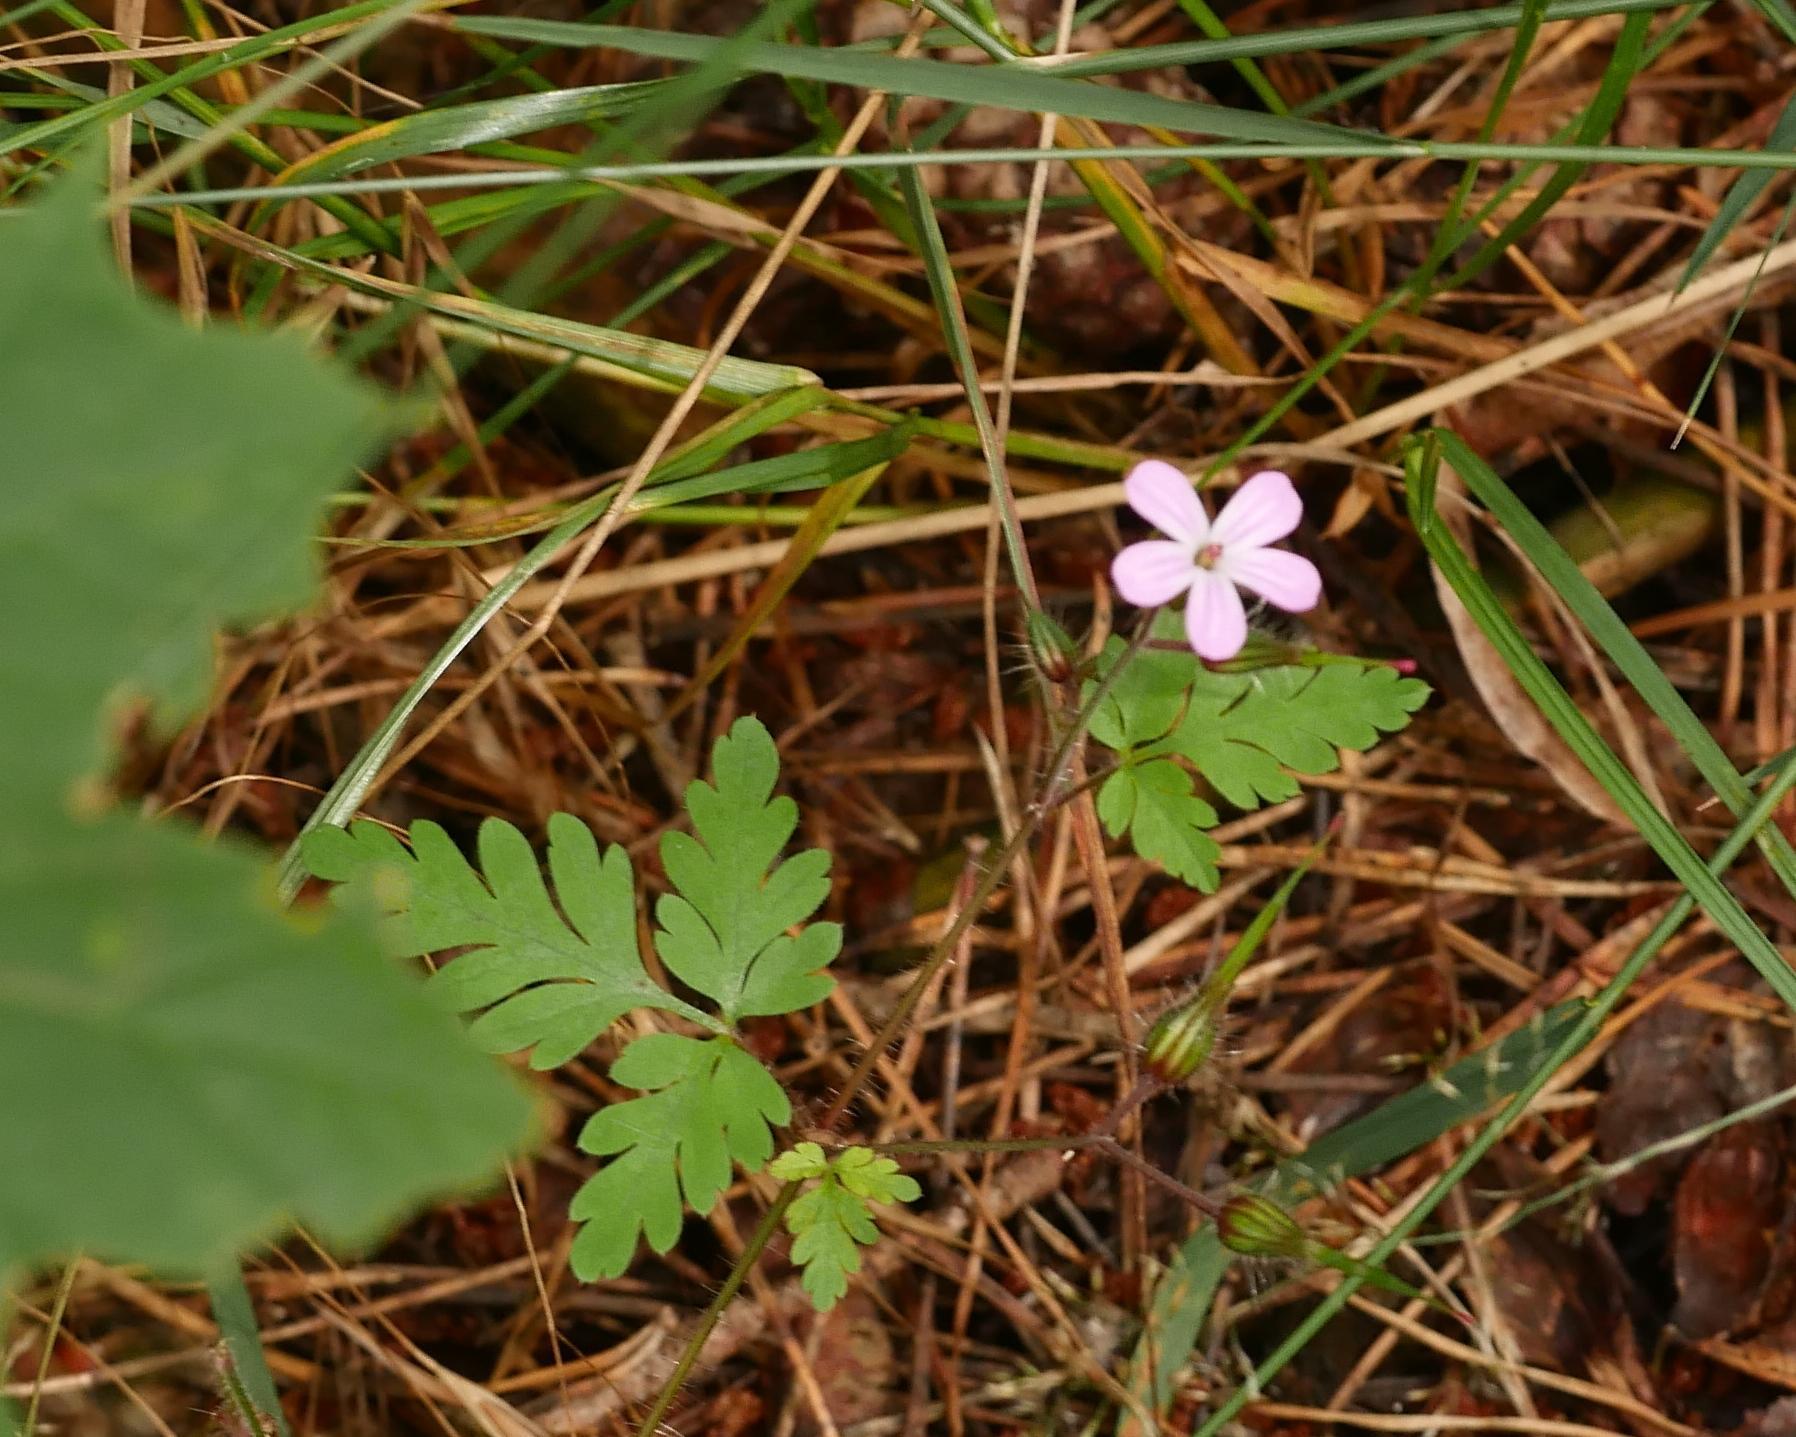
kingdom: Plantae
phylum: Tracheophyta
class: Magnoliopsida
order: Geraniales
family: Geraniaceae
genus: Geranium
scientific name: Geranium robertianum
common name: Herb-robert
